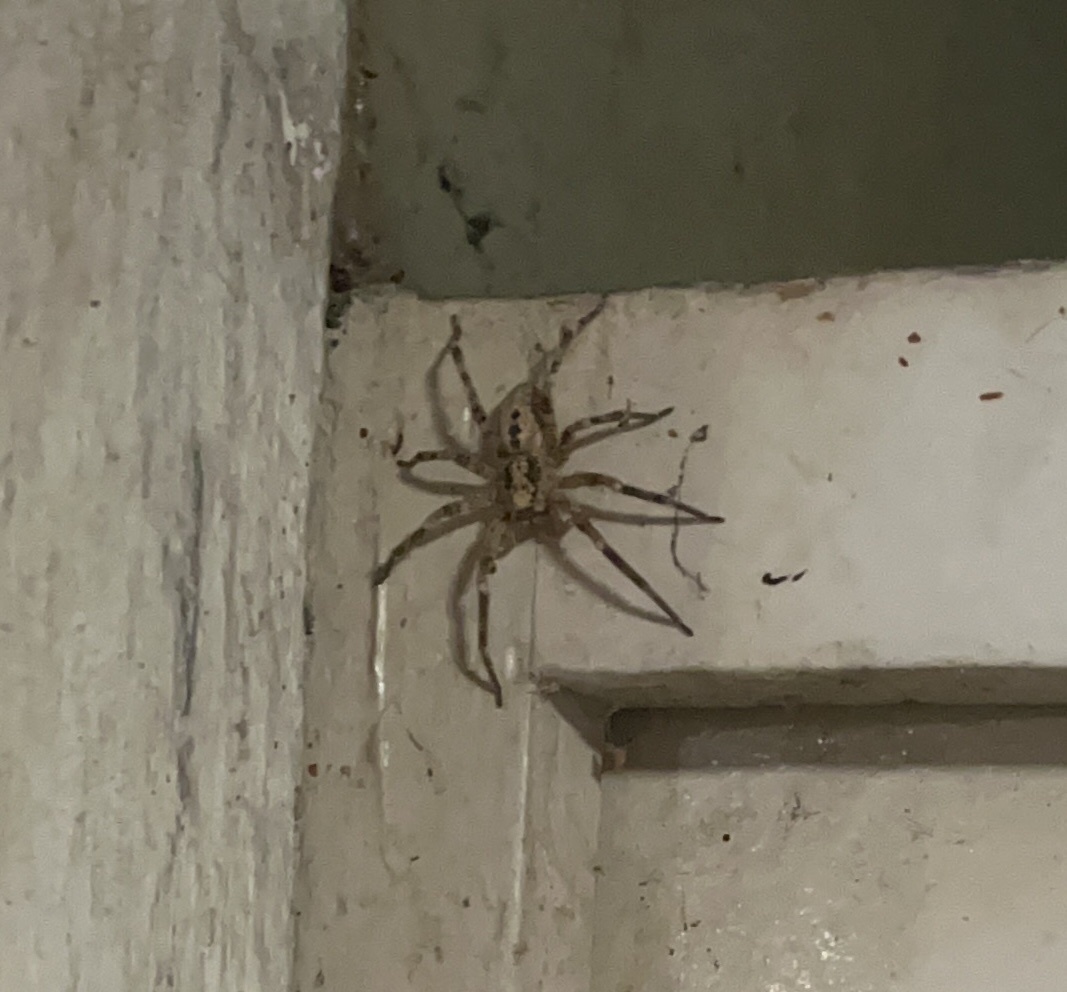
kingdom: Animalia
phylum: Arthropoda
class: Arachnida
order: Araneae
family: Zoropsidae
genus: Zoropsis
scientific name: Zoropsis spinimana
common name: Zoropsid spider
